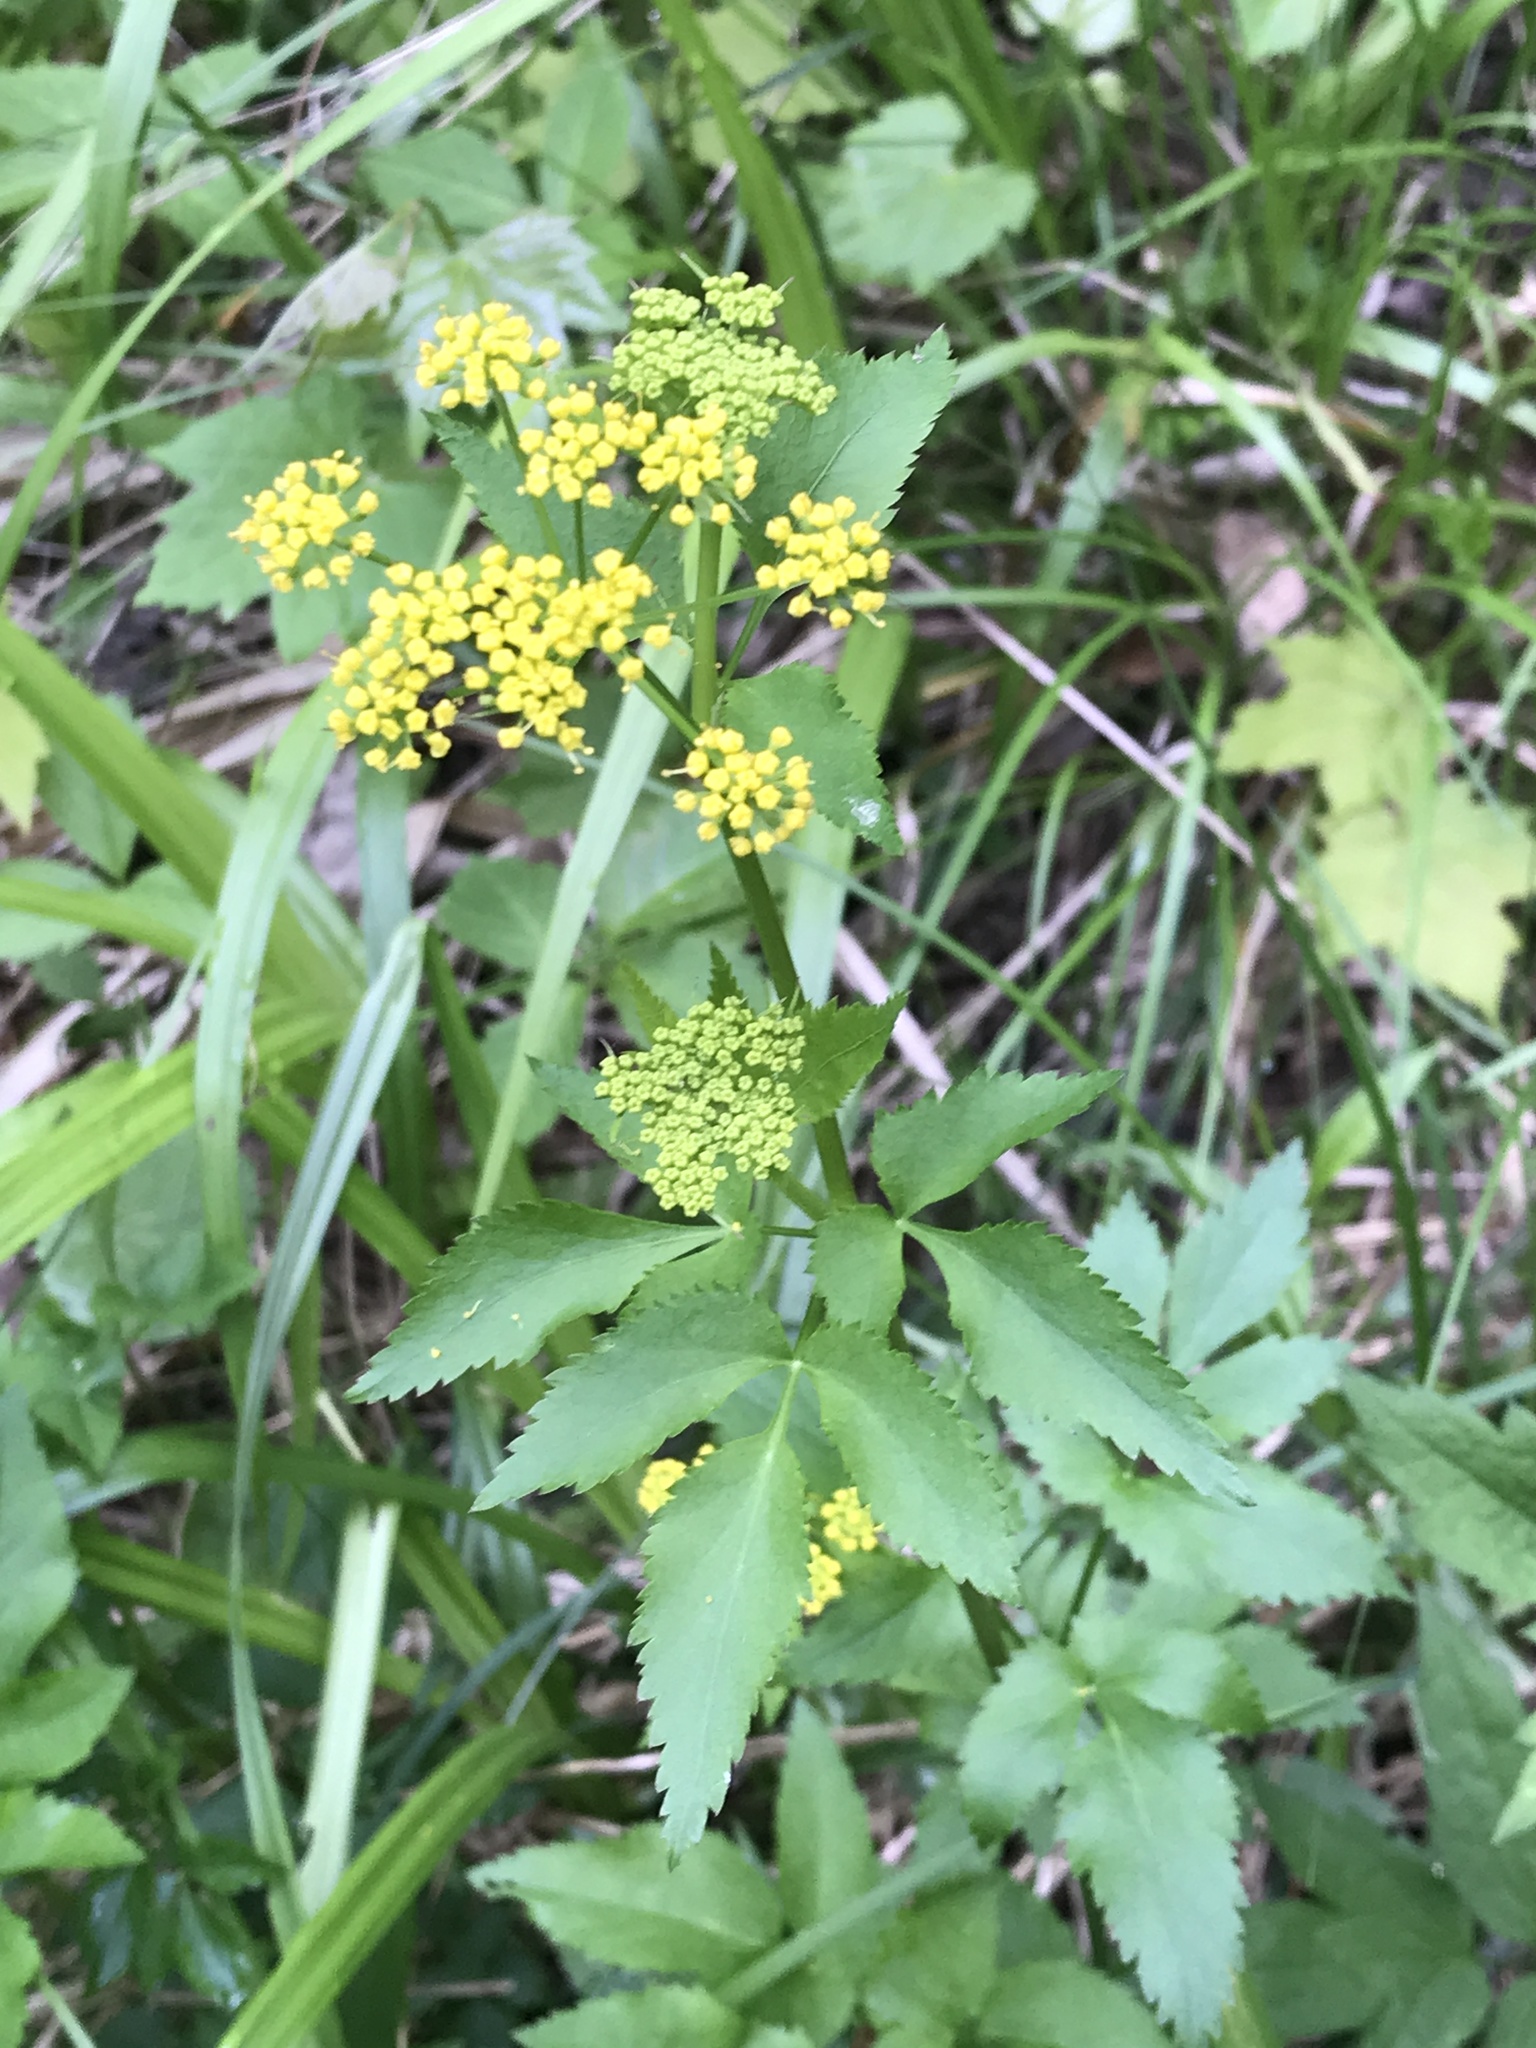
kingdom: Plantae
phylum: Tracheophyta
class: Magnoliopsida
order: Apiales
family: Apiaceae
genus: Zizia
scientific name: Zizia aurea
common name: Golden alexanders
